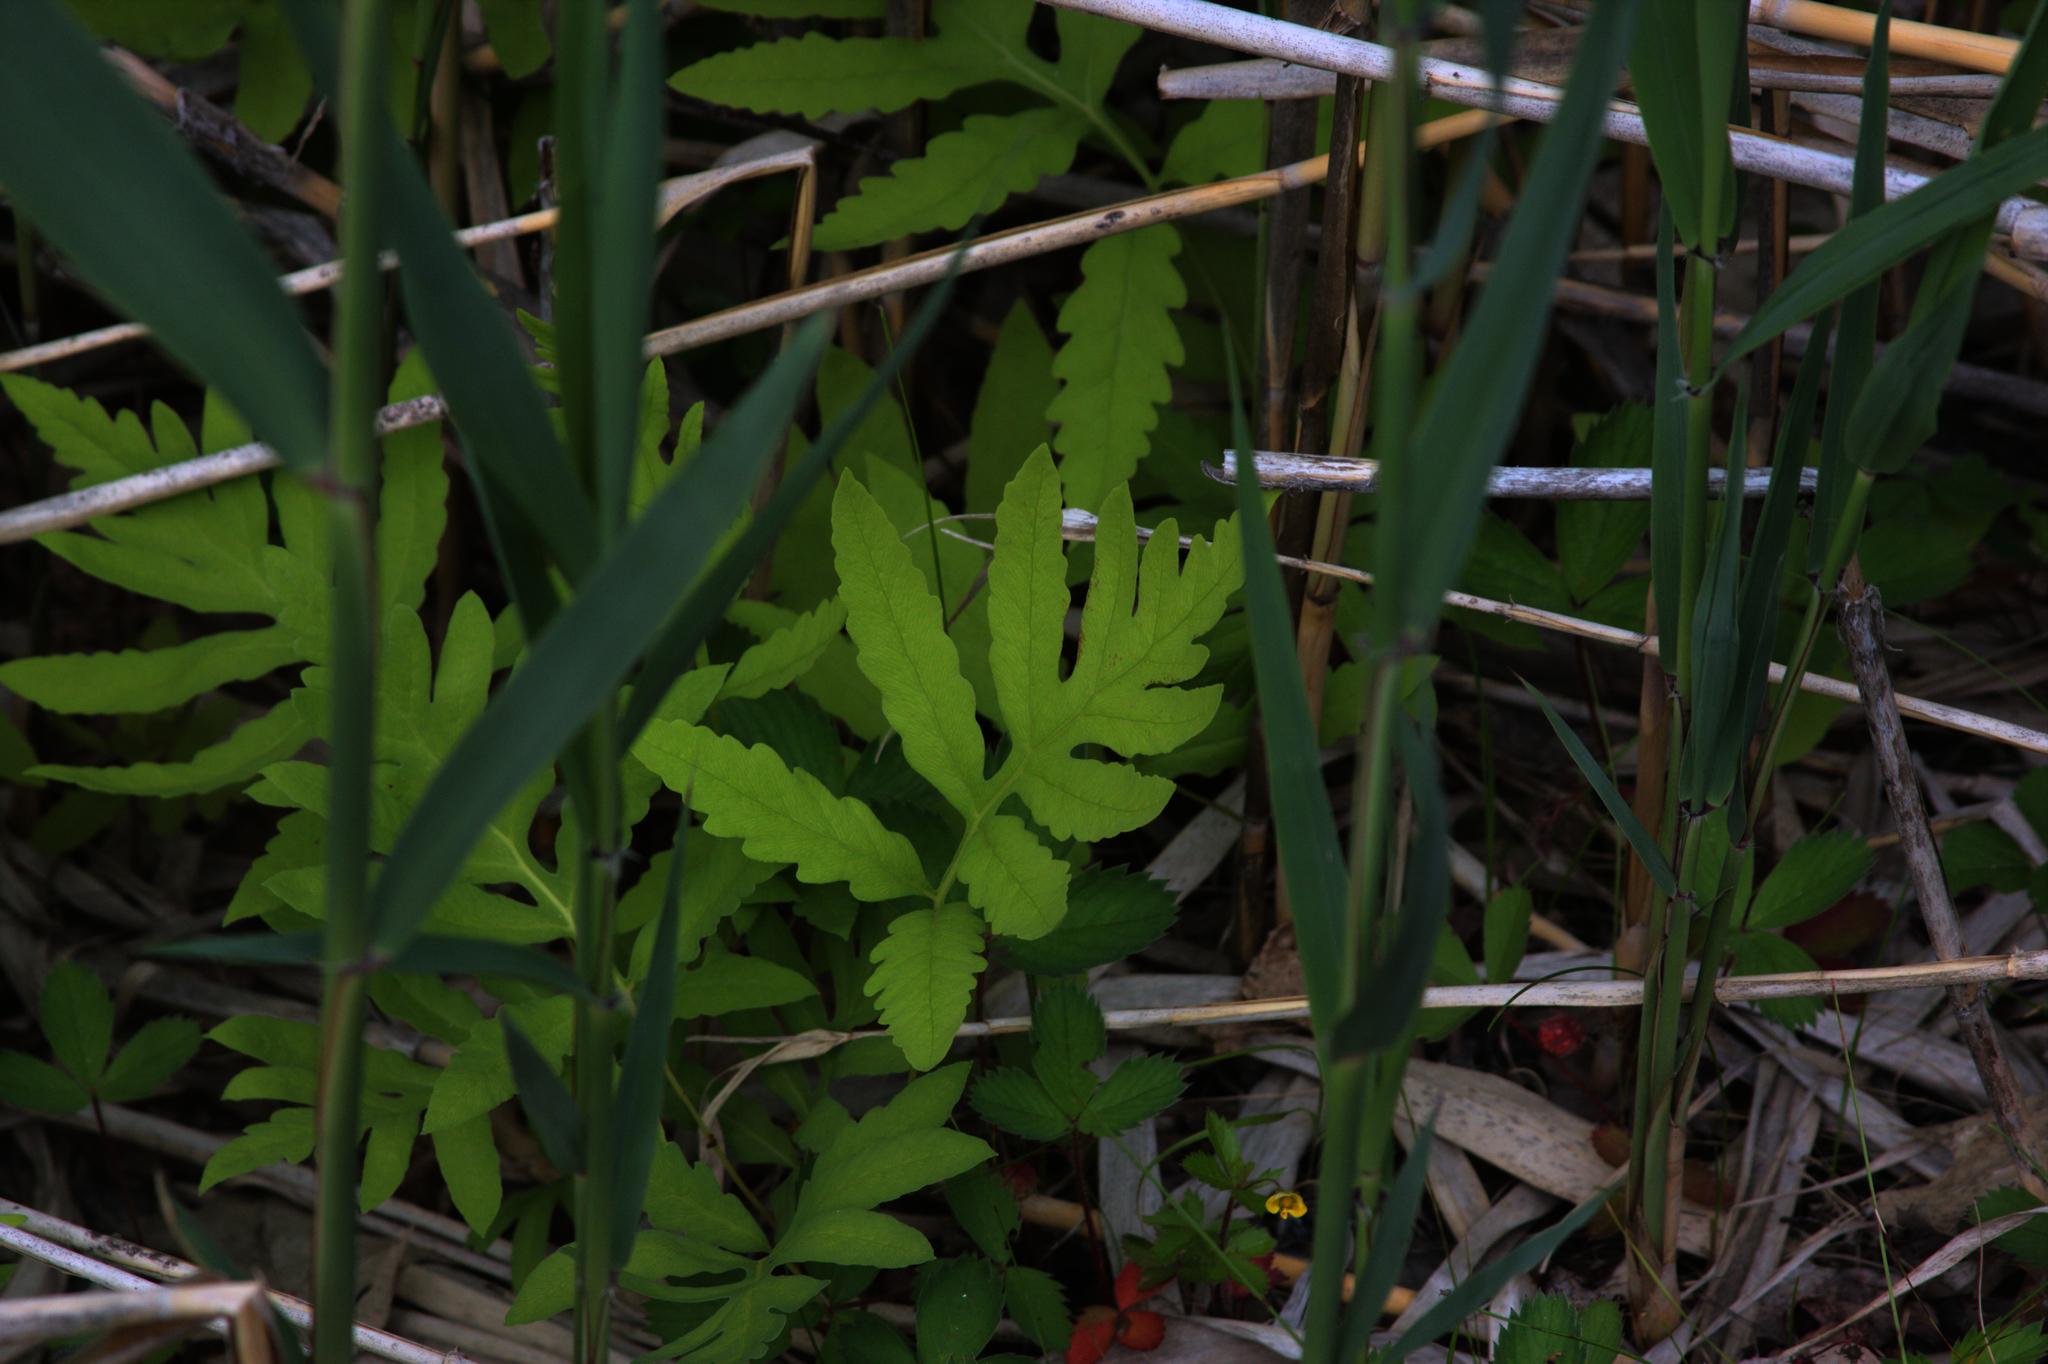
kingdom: Plantae
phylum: Tracheophyta
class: Polypodiopsida
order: Polypodiales
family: Onocleaceae
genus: Onoclea
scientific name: Onoclea sensibilis
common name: Sensitive fern
